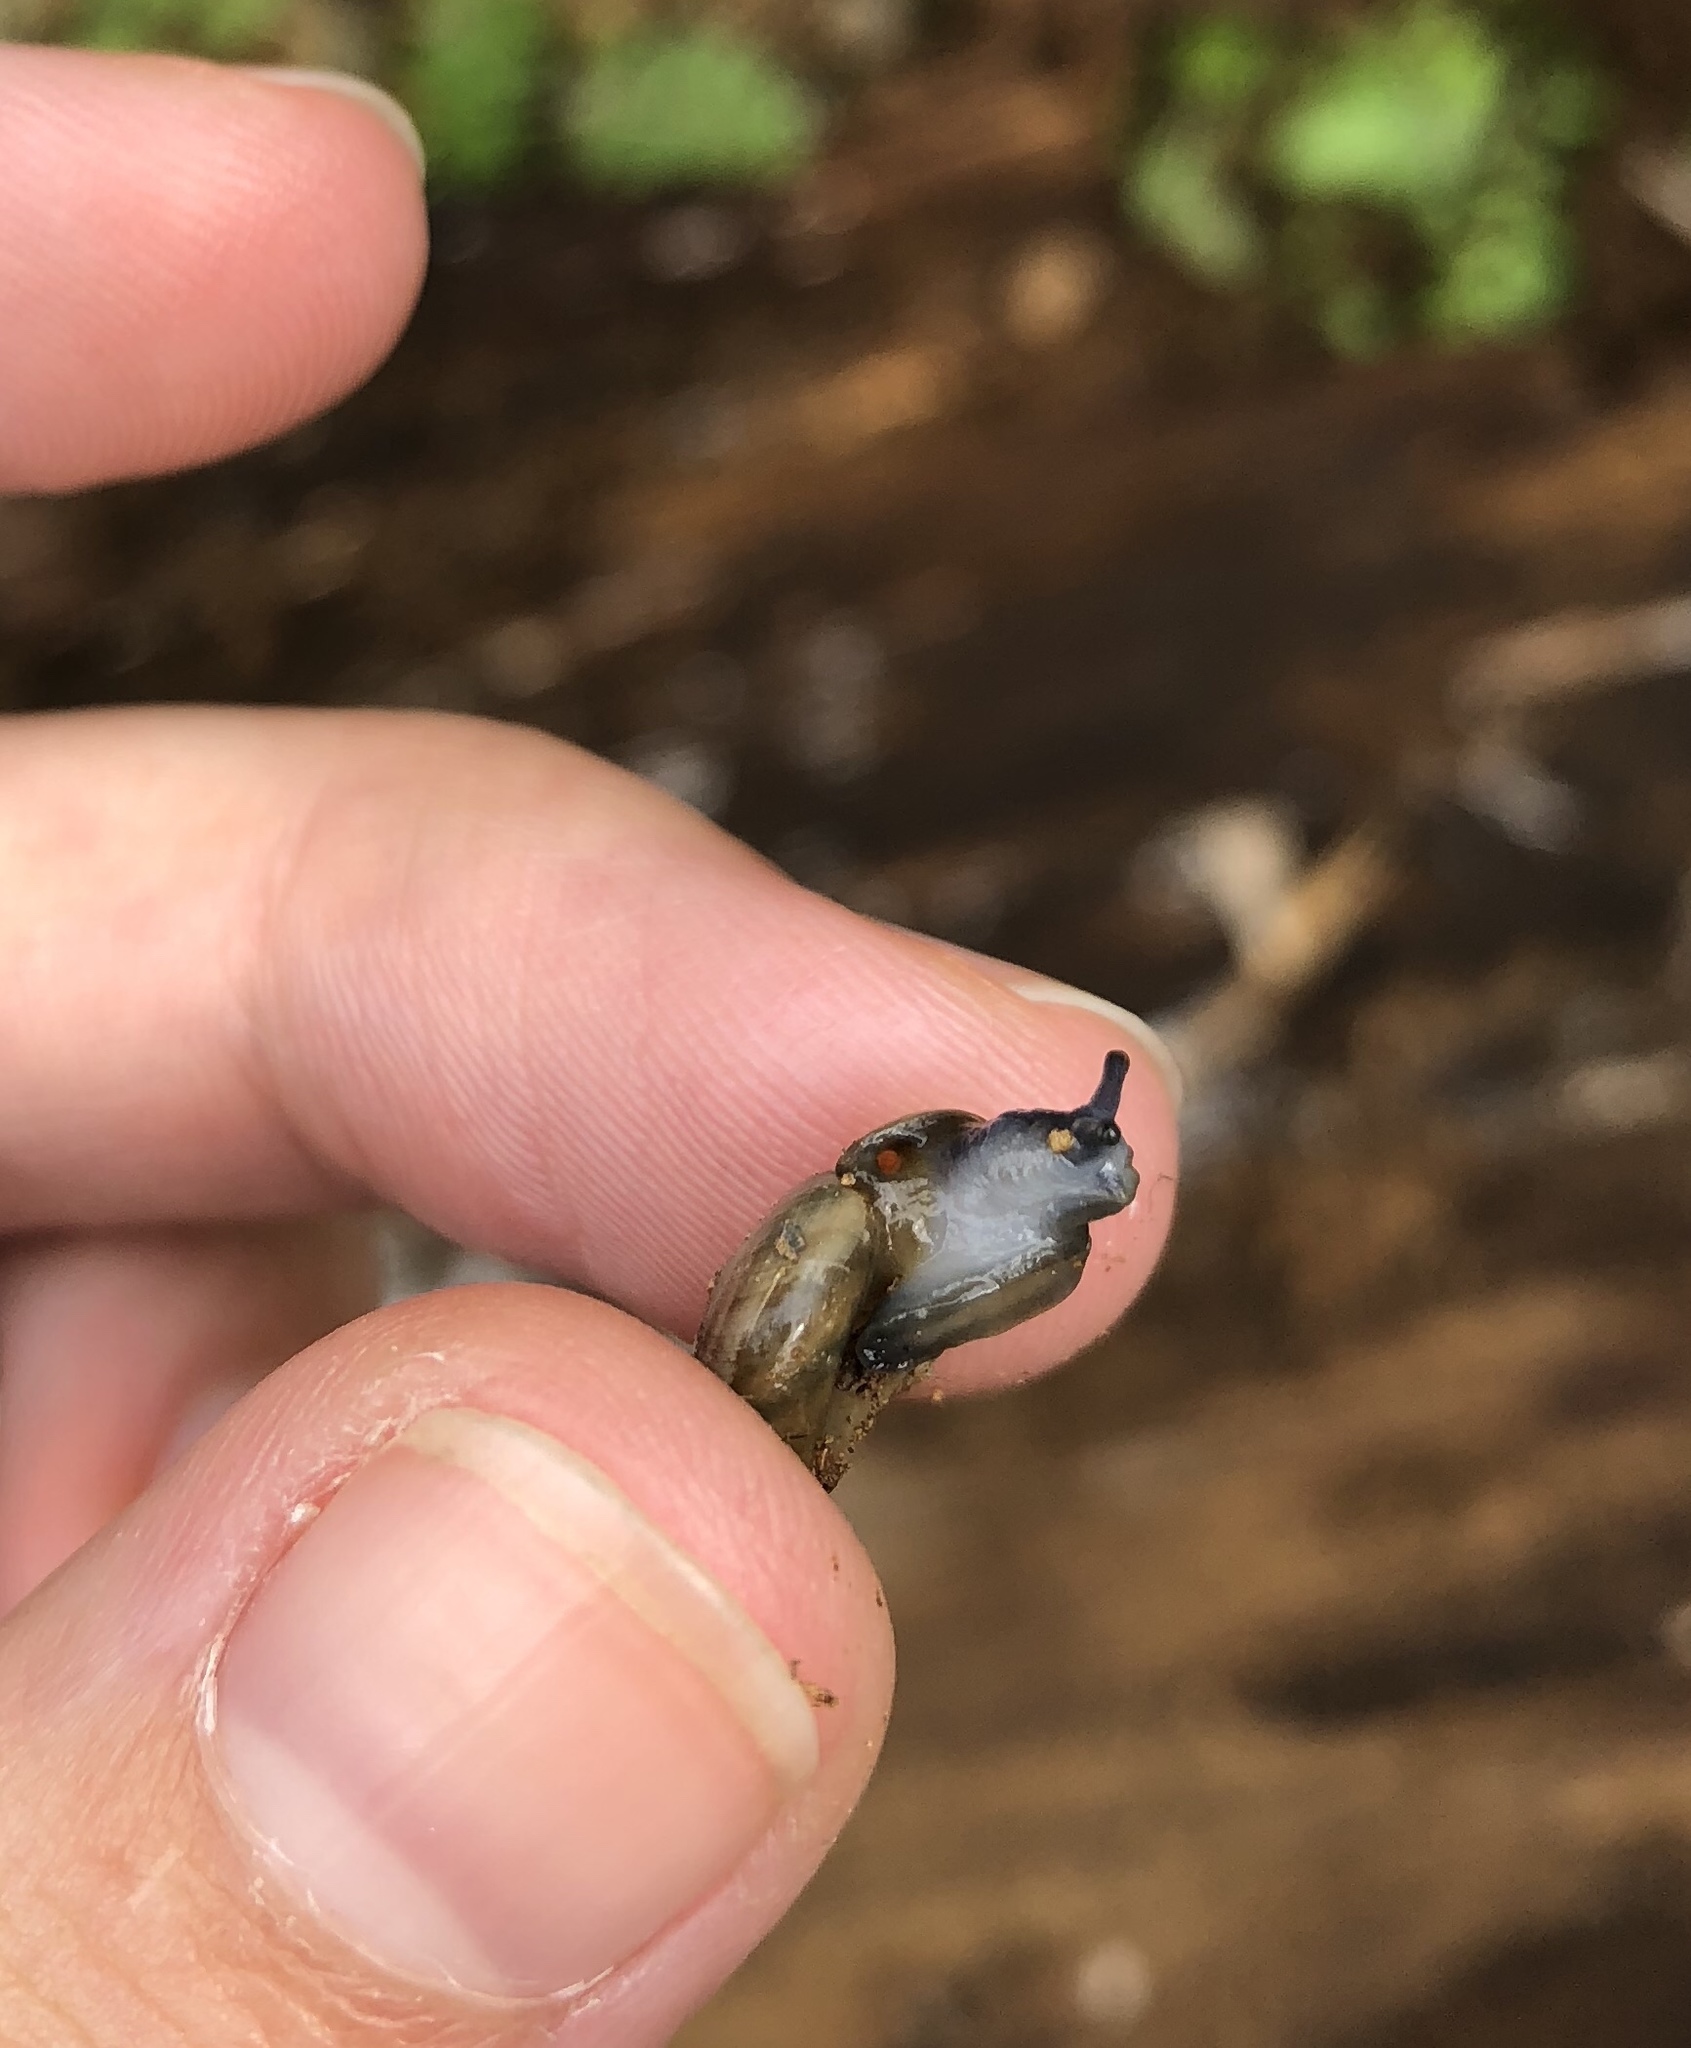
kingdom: Animalia
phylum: Mollusca
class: Gastropoda
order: Stylommatophora
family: Oxychilidae
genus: Oxychilus
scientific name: Oxychilus draparnaudi
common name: Draparnaud's glass snail
